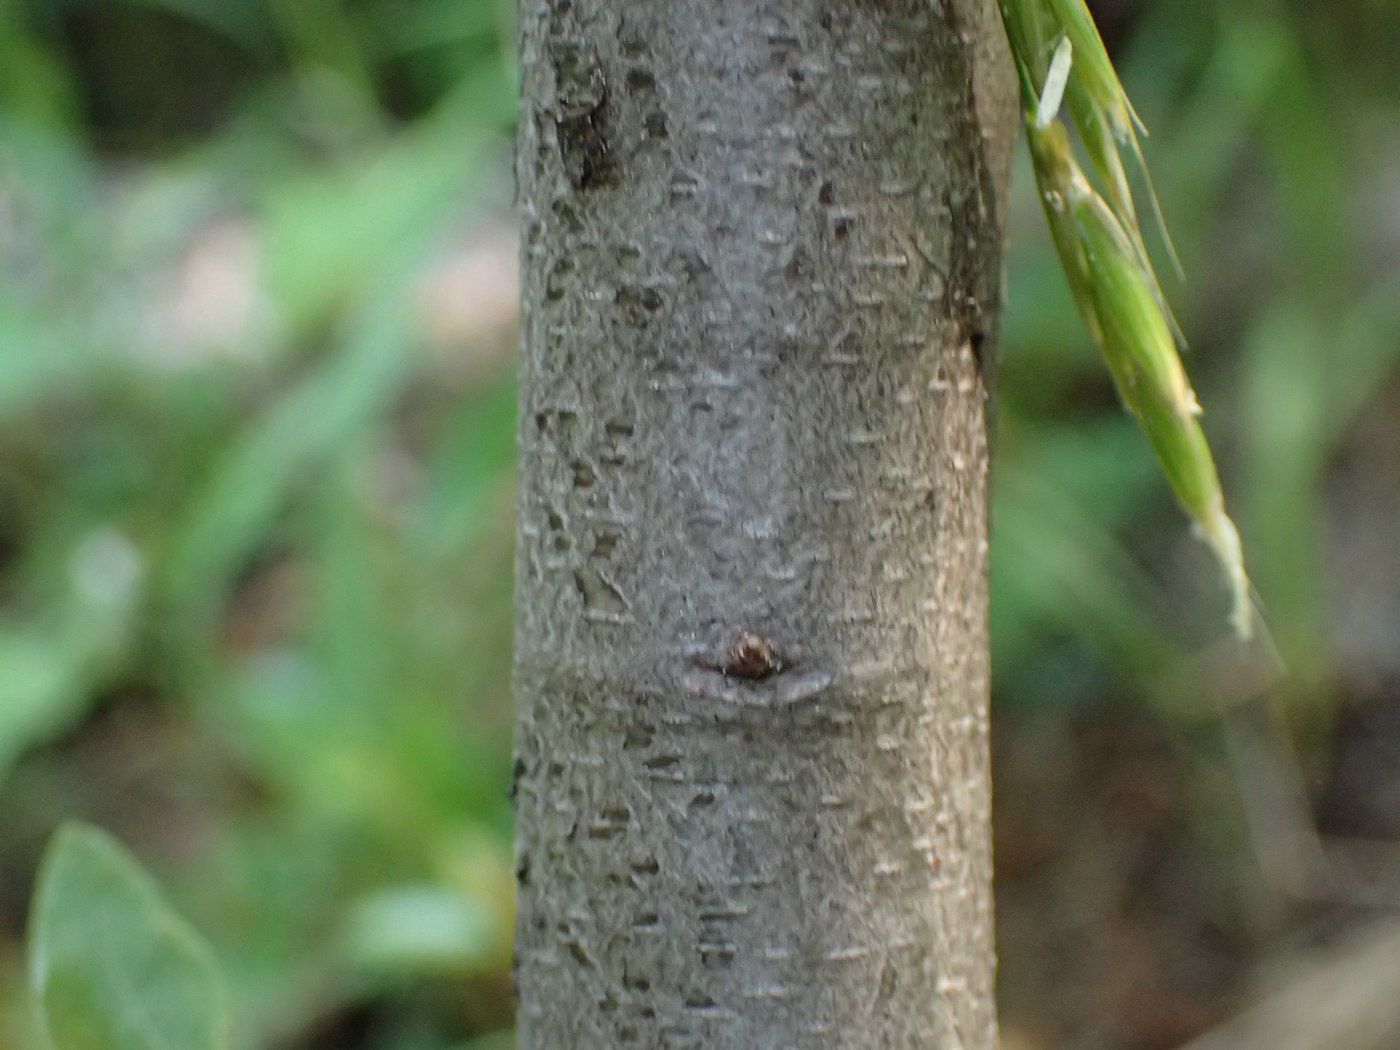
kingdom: Plantae
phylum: Tracheophyta
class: Magnoliopsida
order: Fagales
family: Fagaceae
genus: Chrysolepis
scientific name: Chrysolepis chrysophylla
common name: Giant chinquapin
